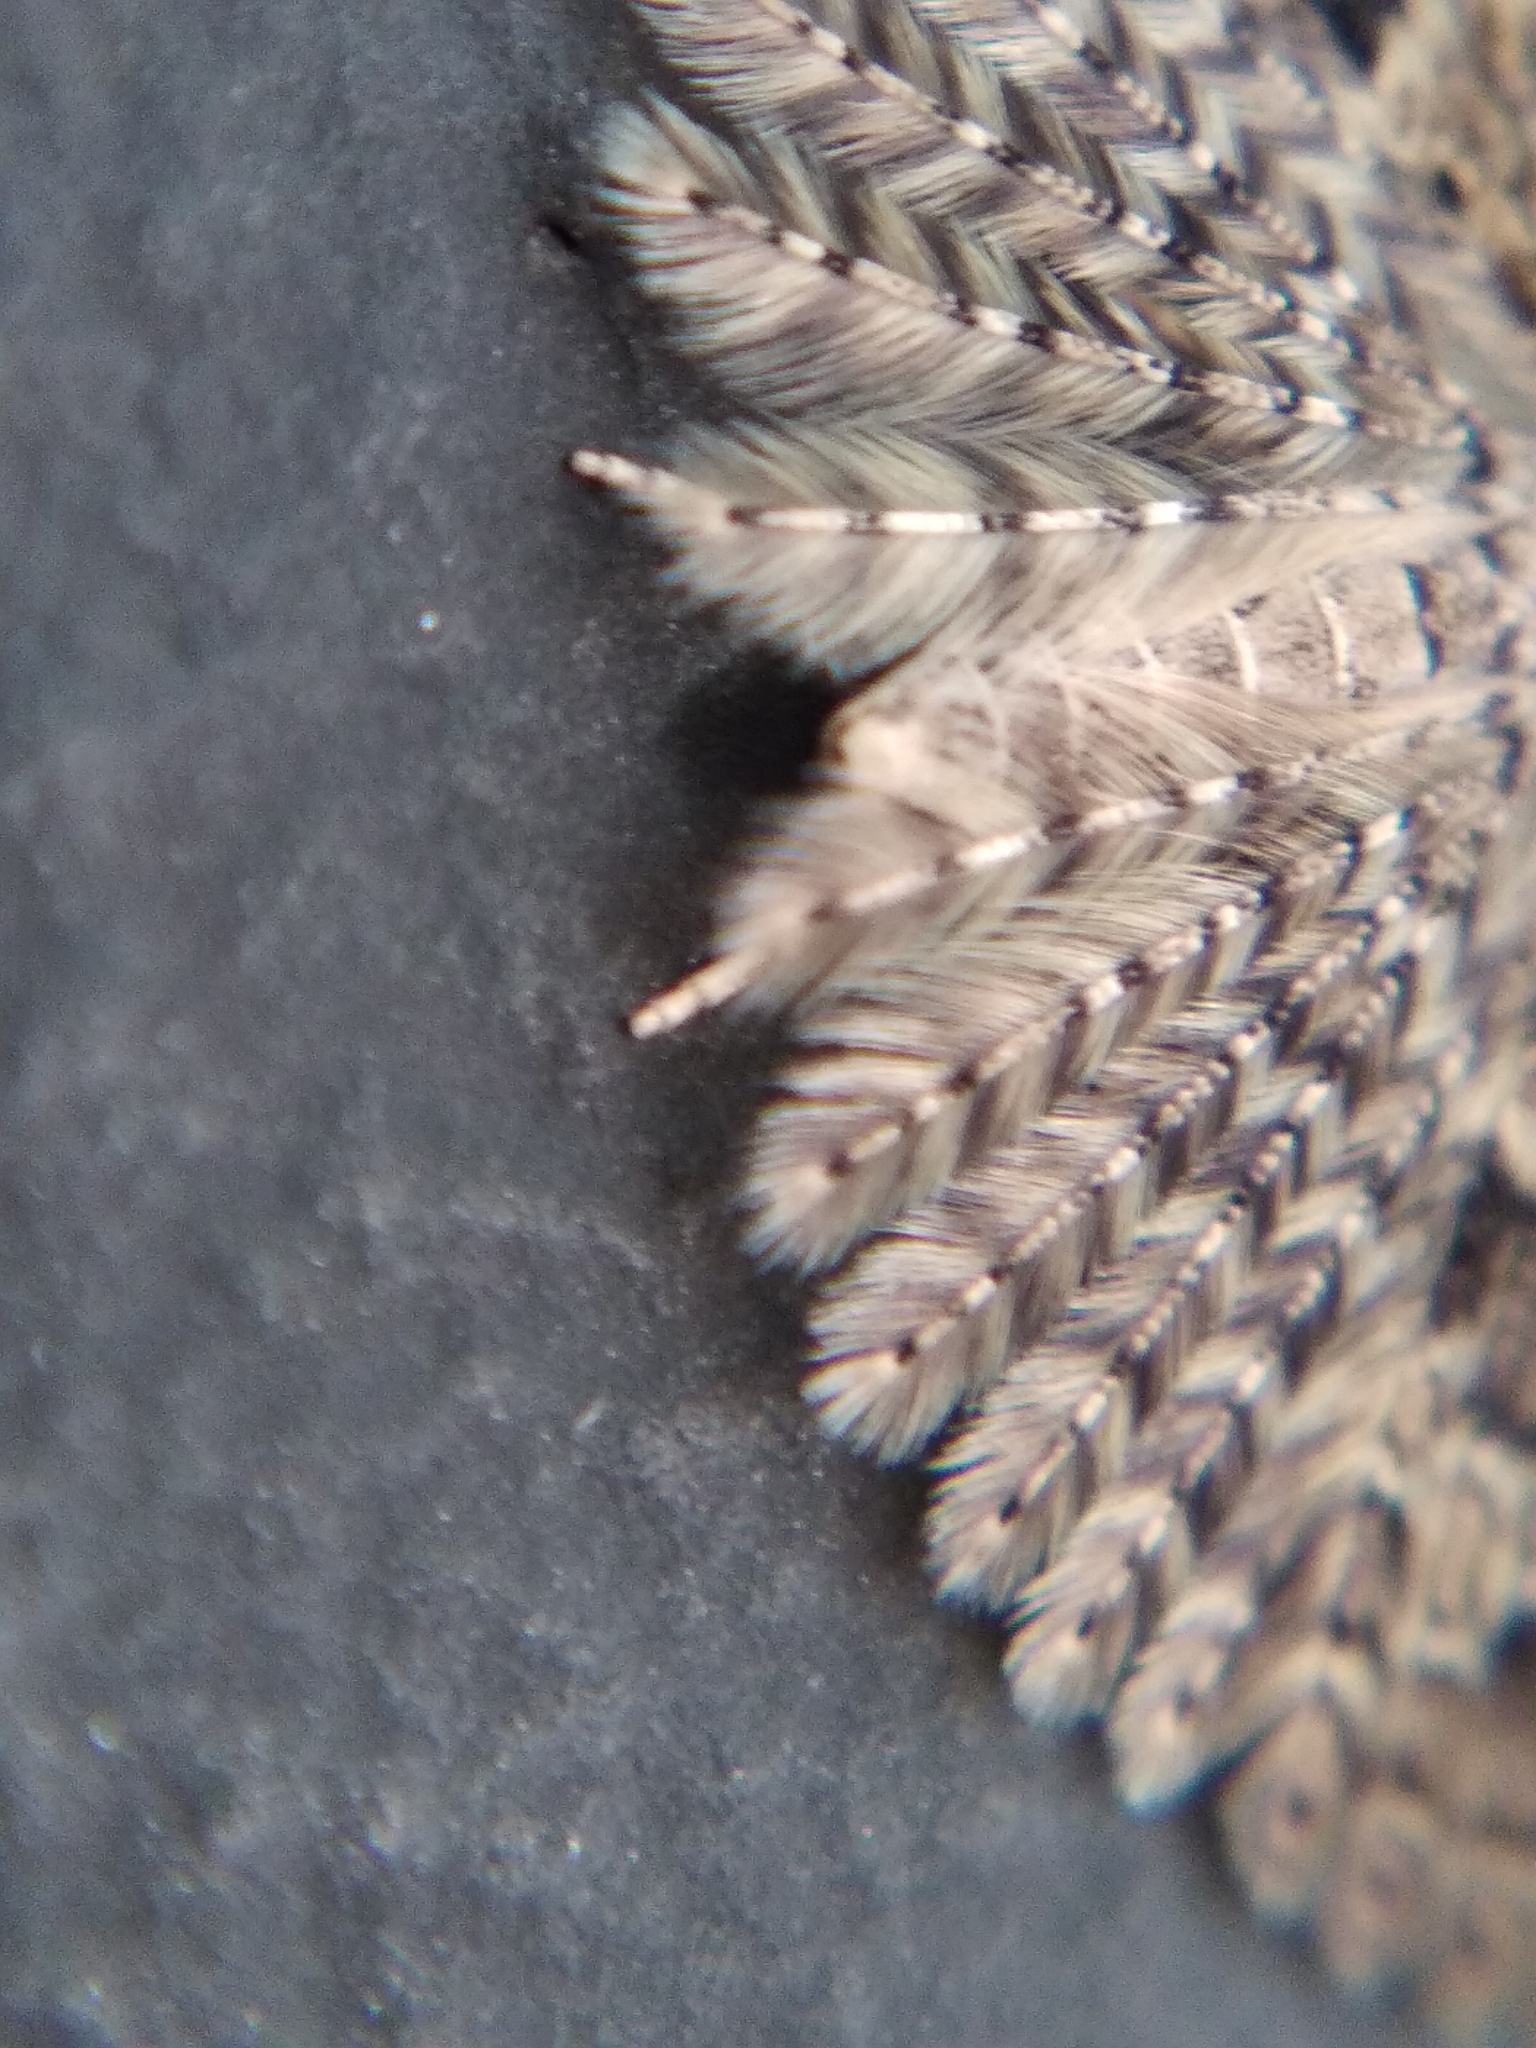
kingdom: Animalia
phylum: Arthropoda
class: Insecta
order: Lepidoptera
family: Alucitidae
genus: Alucita
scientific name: Alucita hexadactyla
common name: Twenty-plume moth
